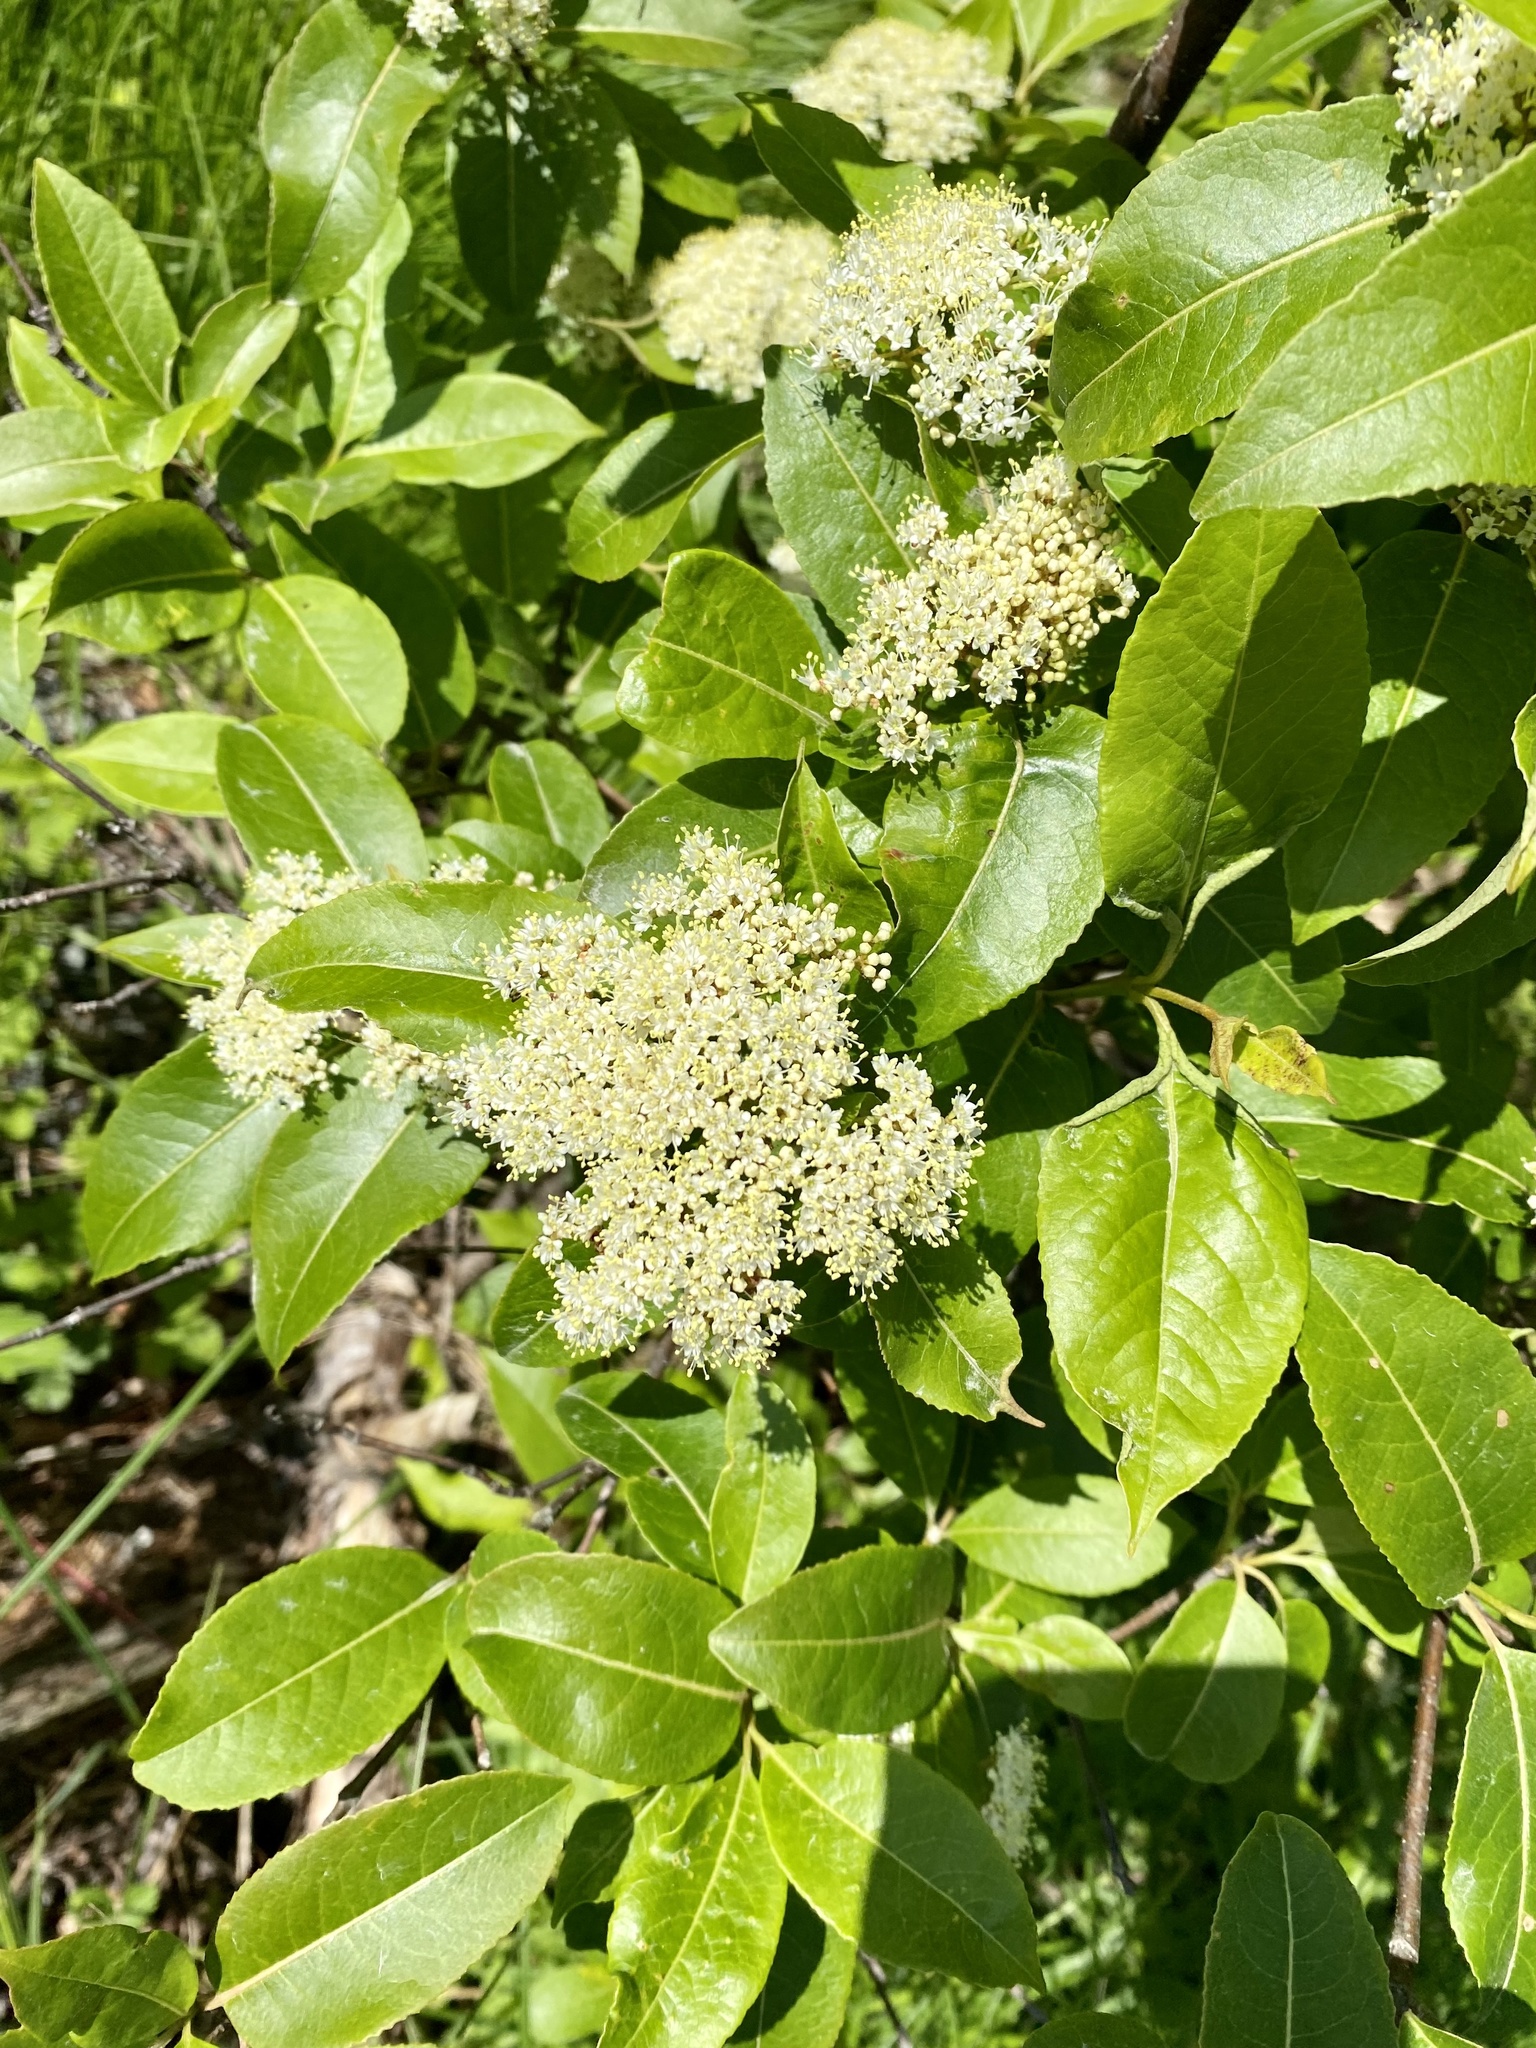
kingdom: Plantae
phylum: Tracheophyta
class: Magnoliopsida
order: Dipsacales
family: Viburnaceae
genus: Viburnum
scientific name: Viburnum cassinoides
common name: Swamp haw
